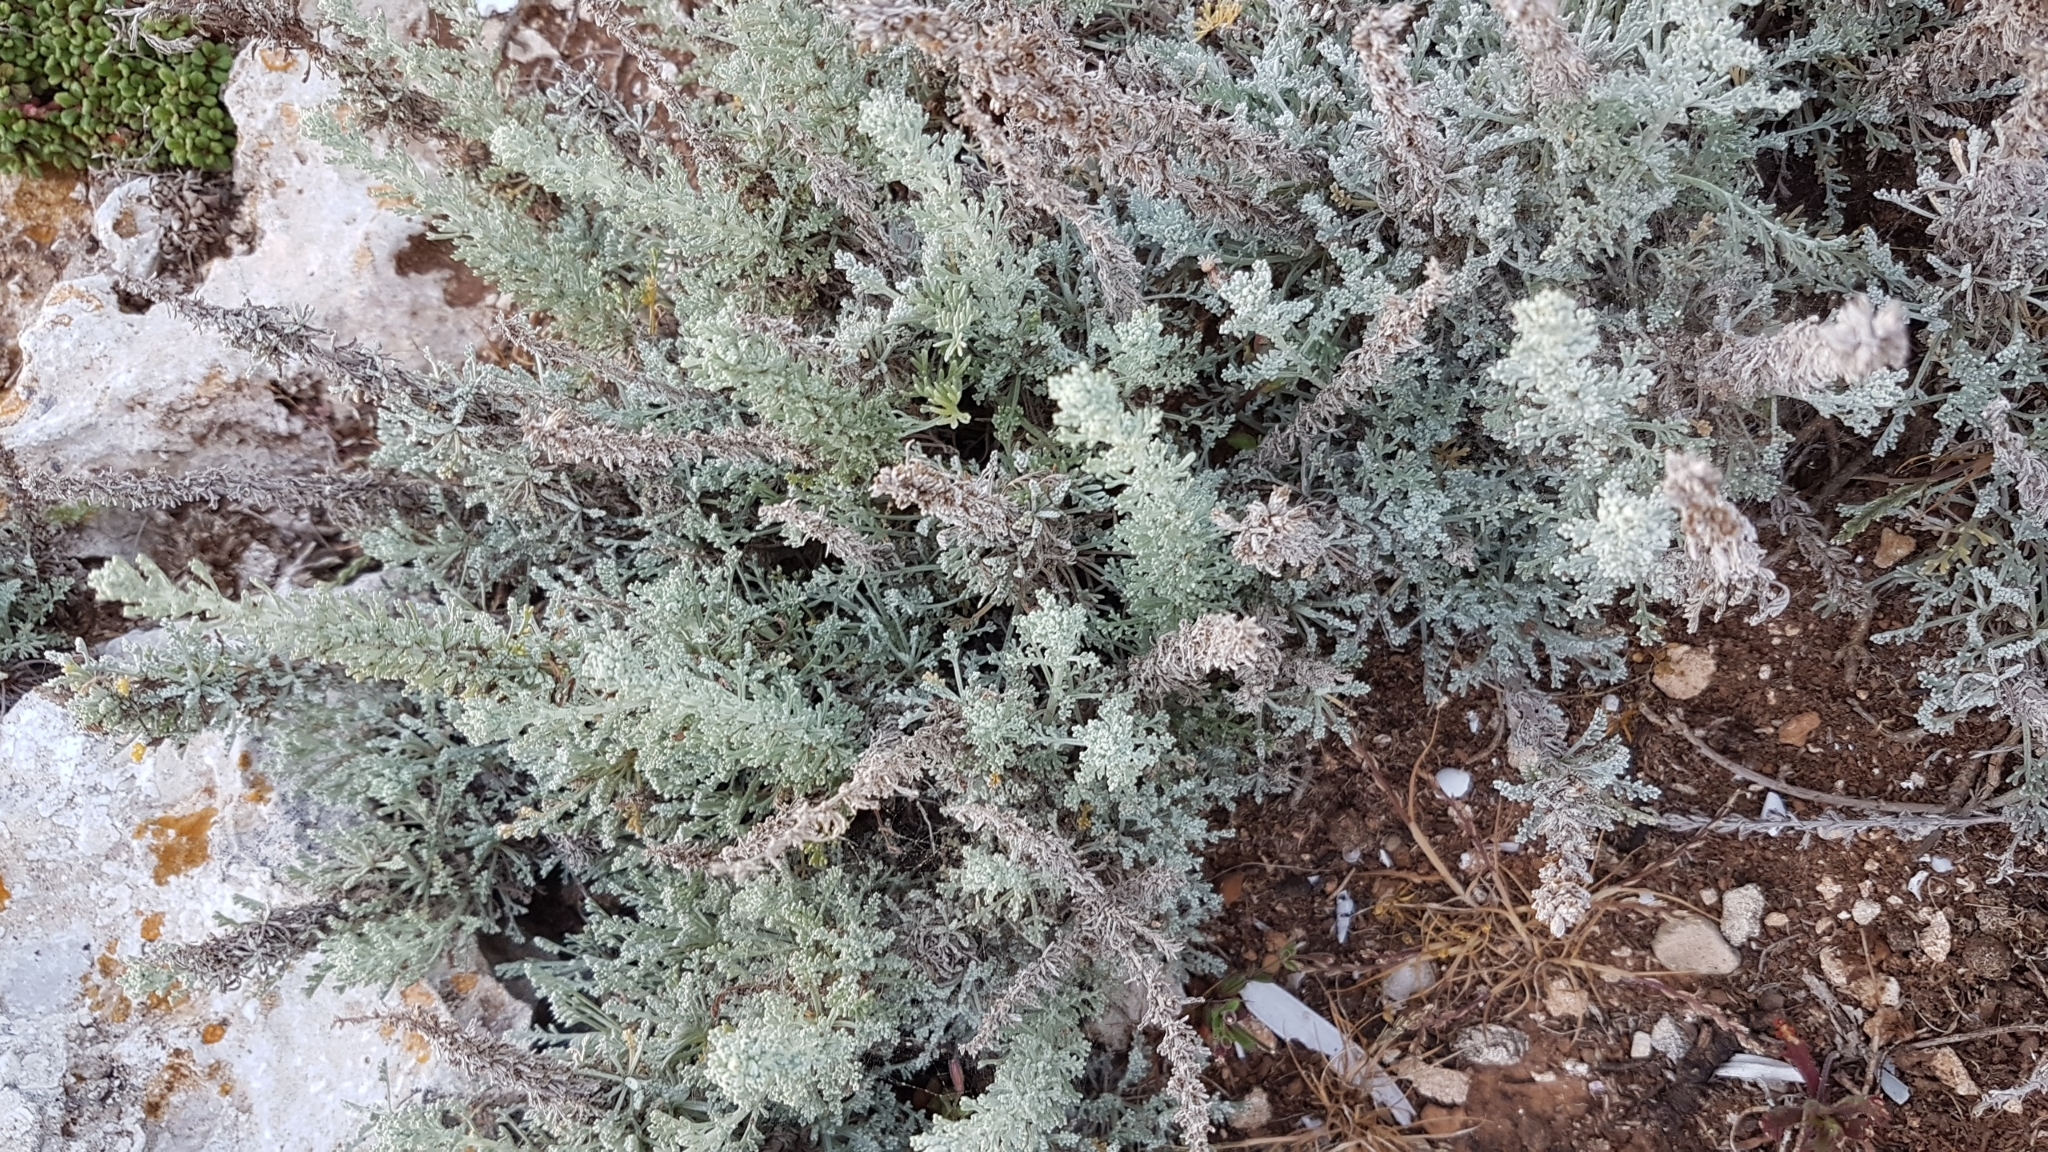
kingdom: Plantae
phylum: Tracheophyta
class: Magnoliopsida
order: Asterales
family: Asteraceae
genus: Artemisia
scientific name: Artemisia caerulescens
